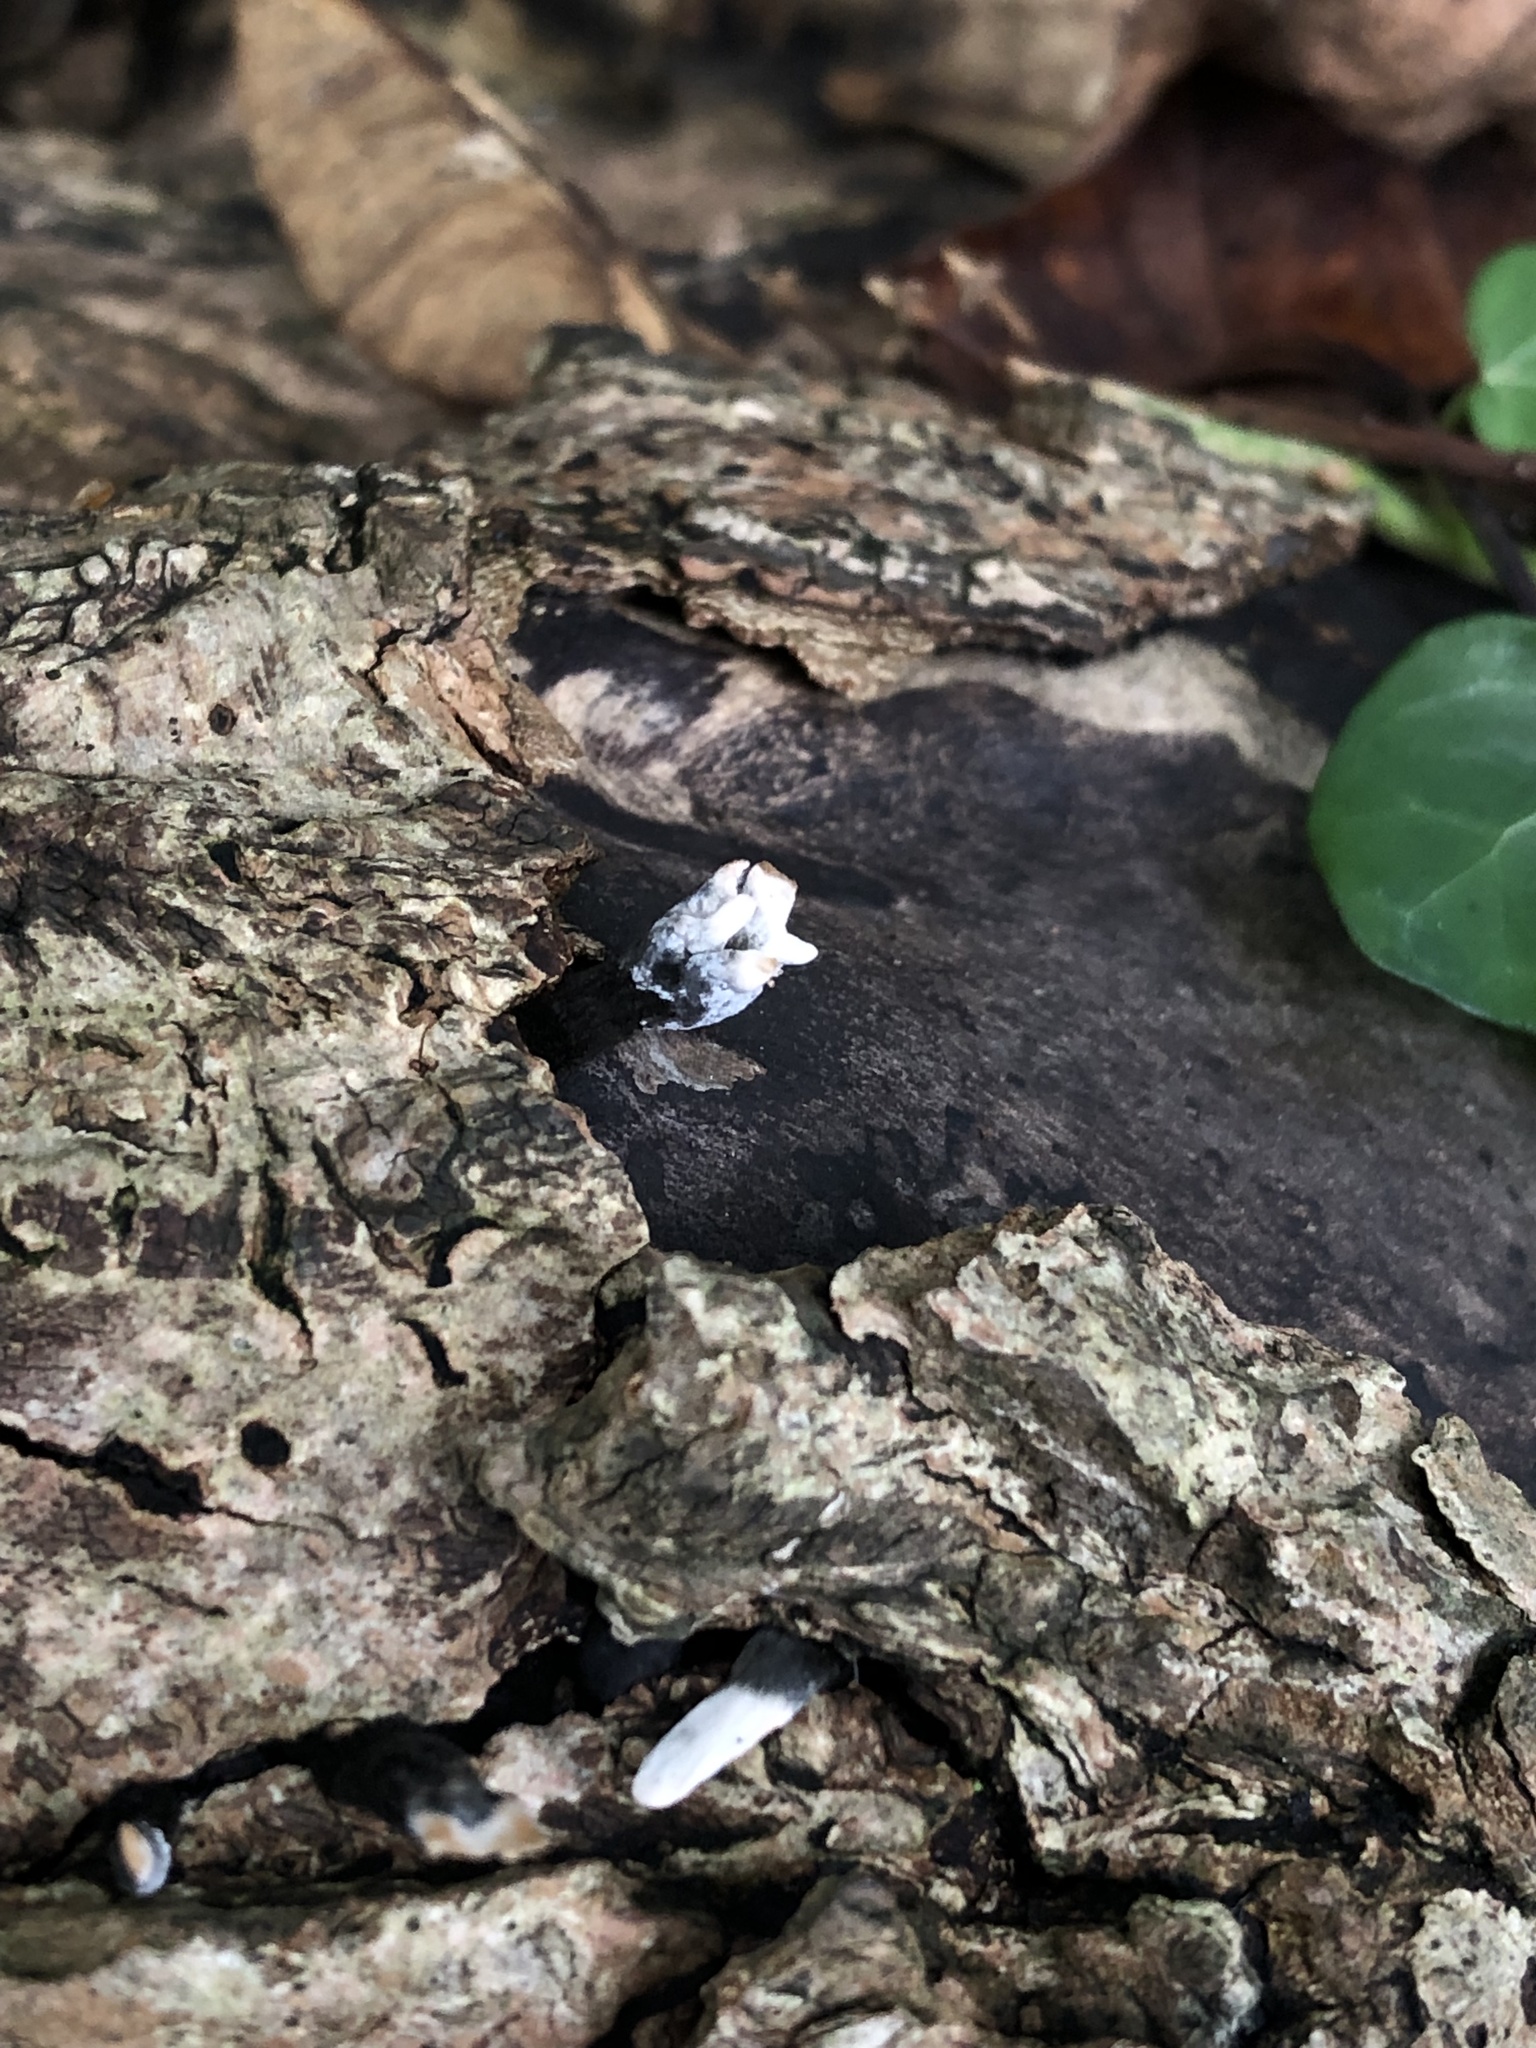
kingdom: Fungi
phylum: Ascomycota
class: Sordariomycetes
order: Xylariales
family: Xylariaceae
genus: Xylaria
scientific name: Xylaria hypoxylon
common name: Candle-snuff fungus
